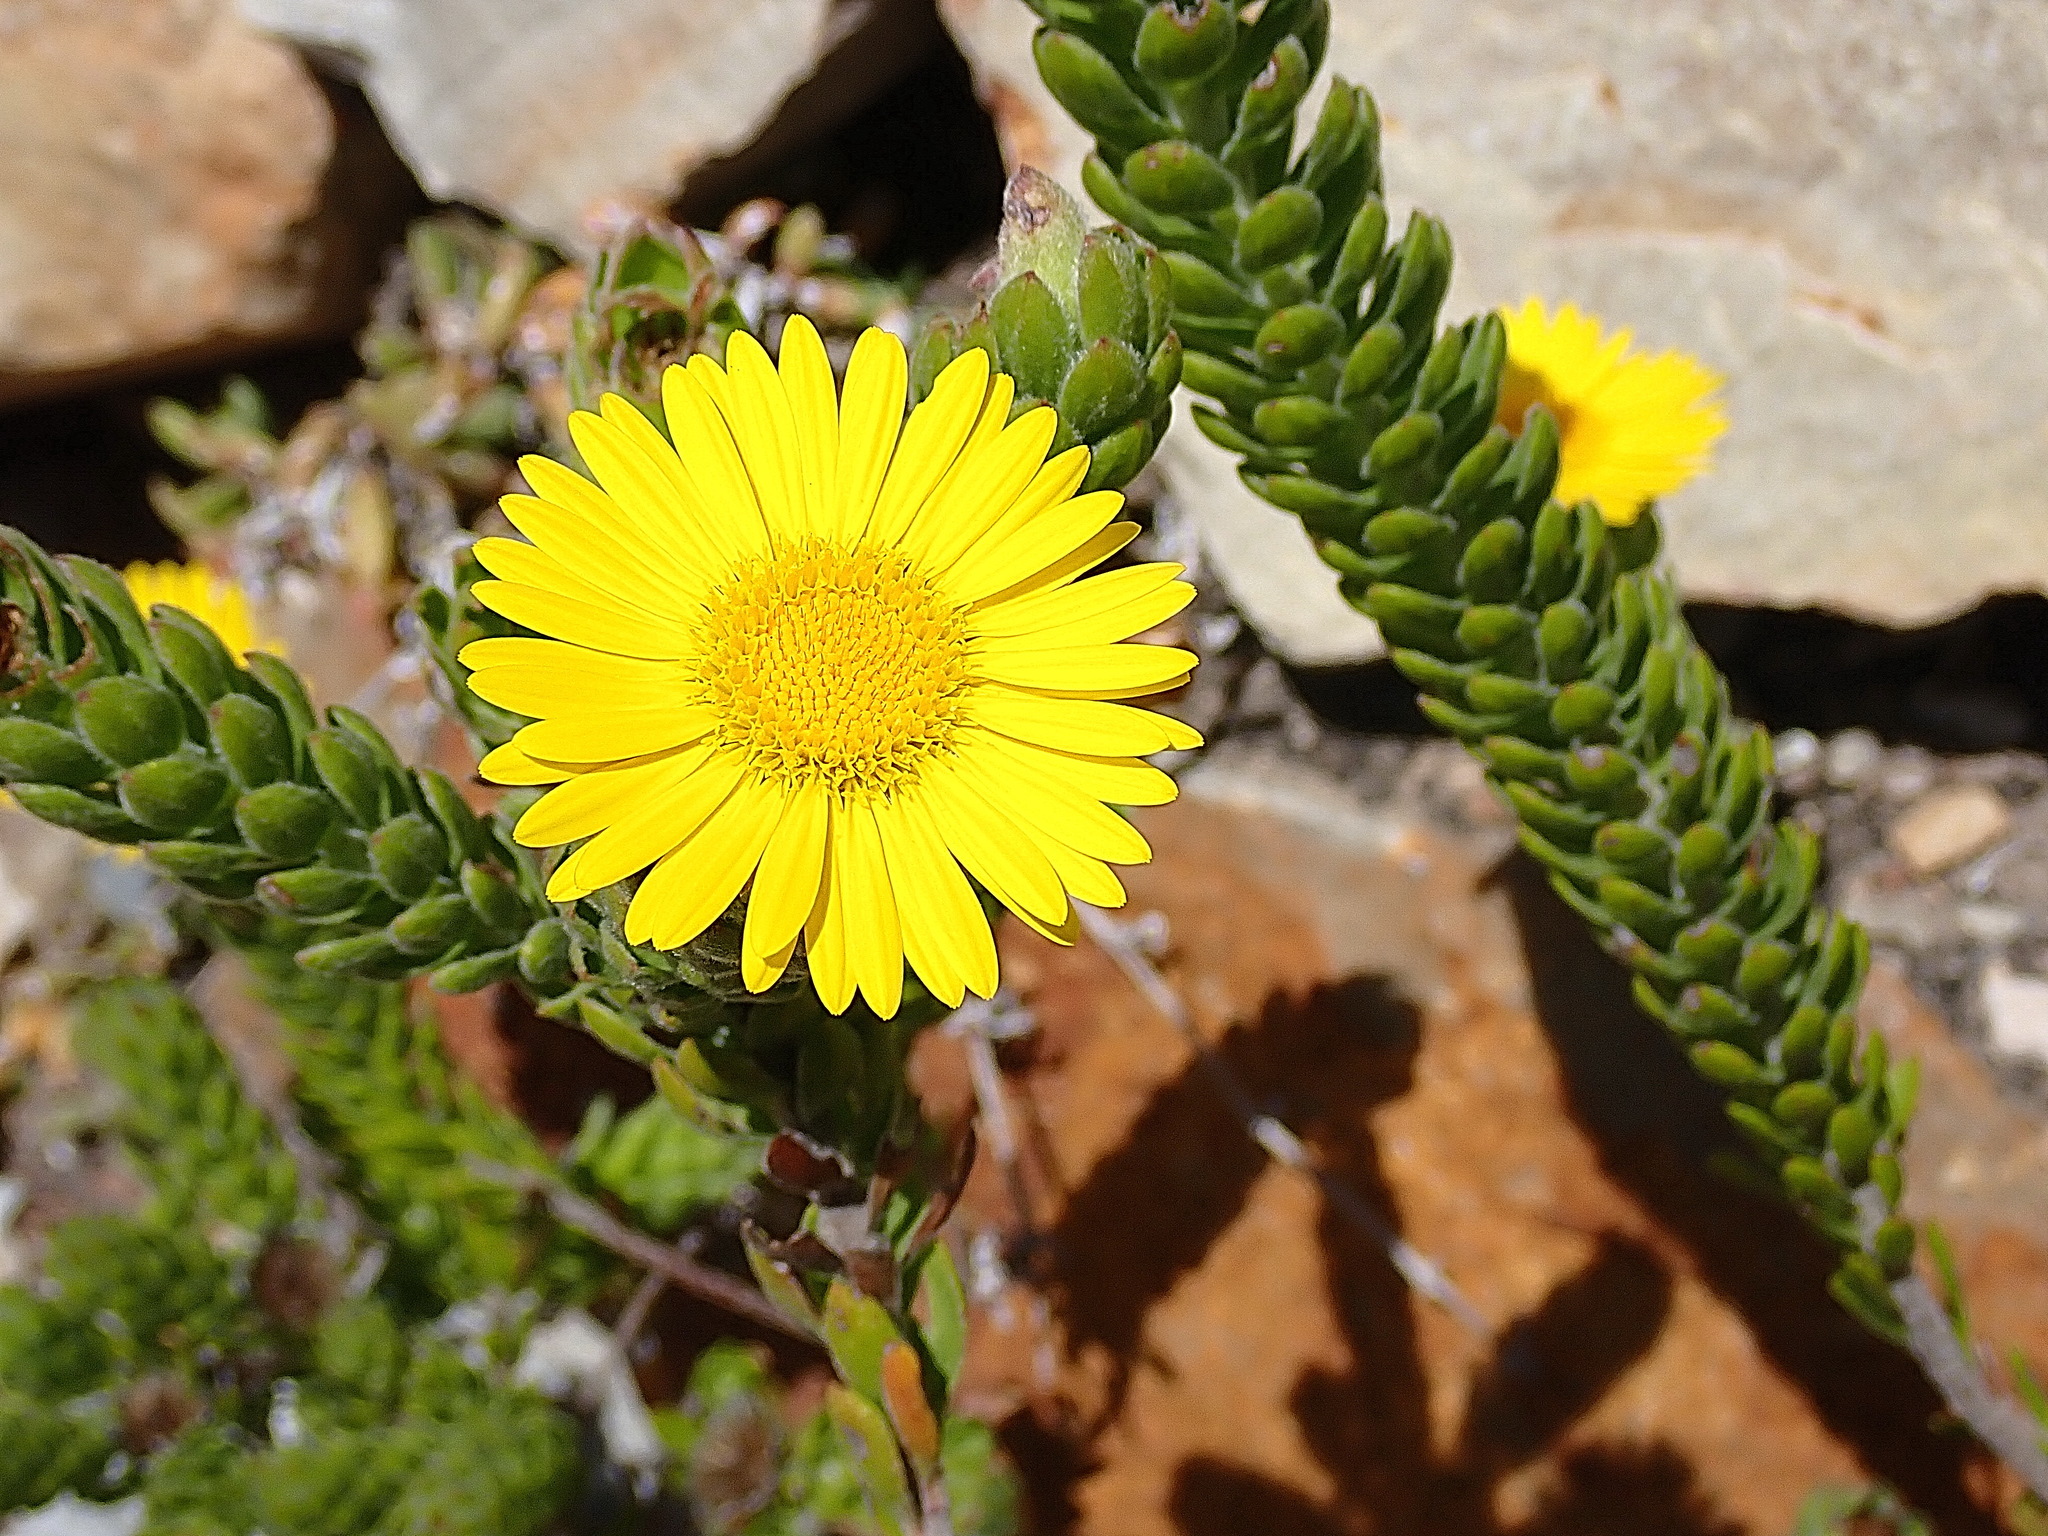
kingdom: Plantae
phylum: Tracheophyta
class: Magnoliopsida
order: Asterales
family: Asteraceae
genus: Oedera
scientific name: Oedera calycina
